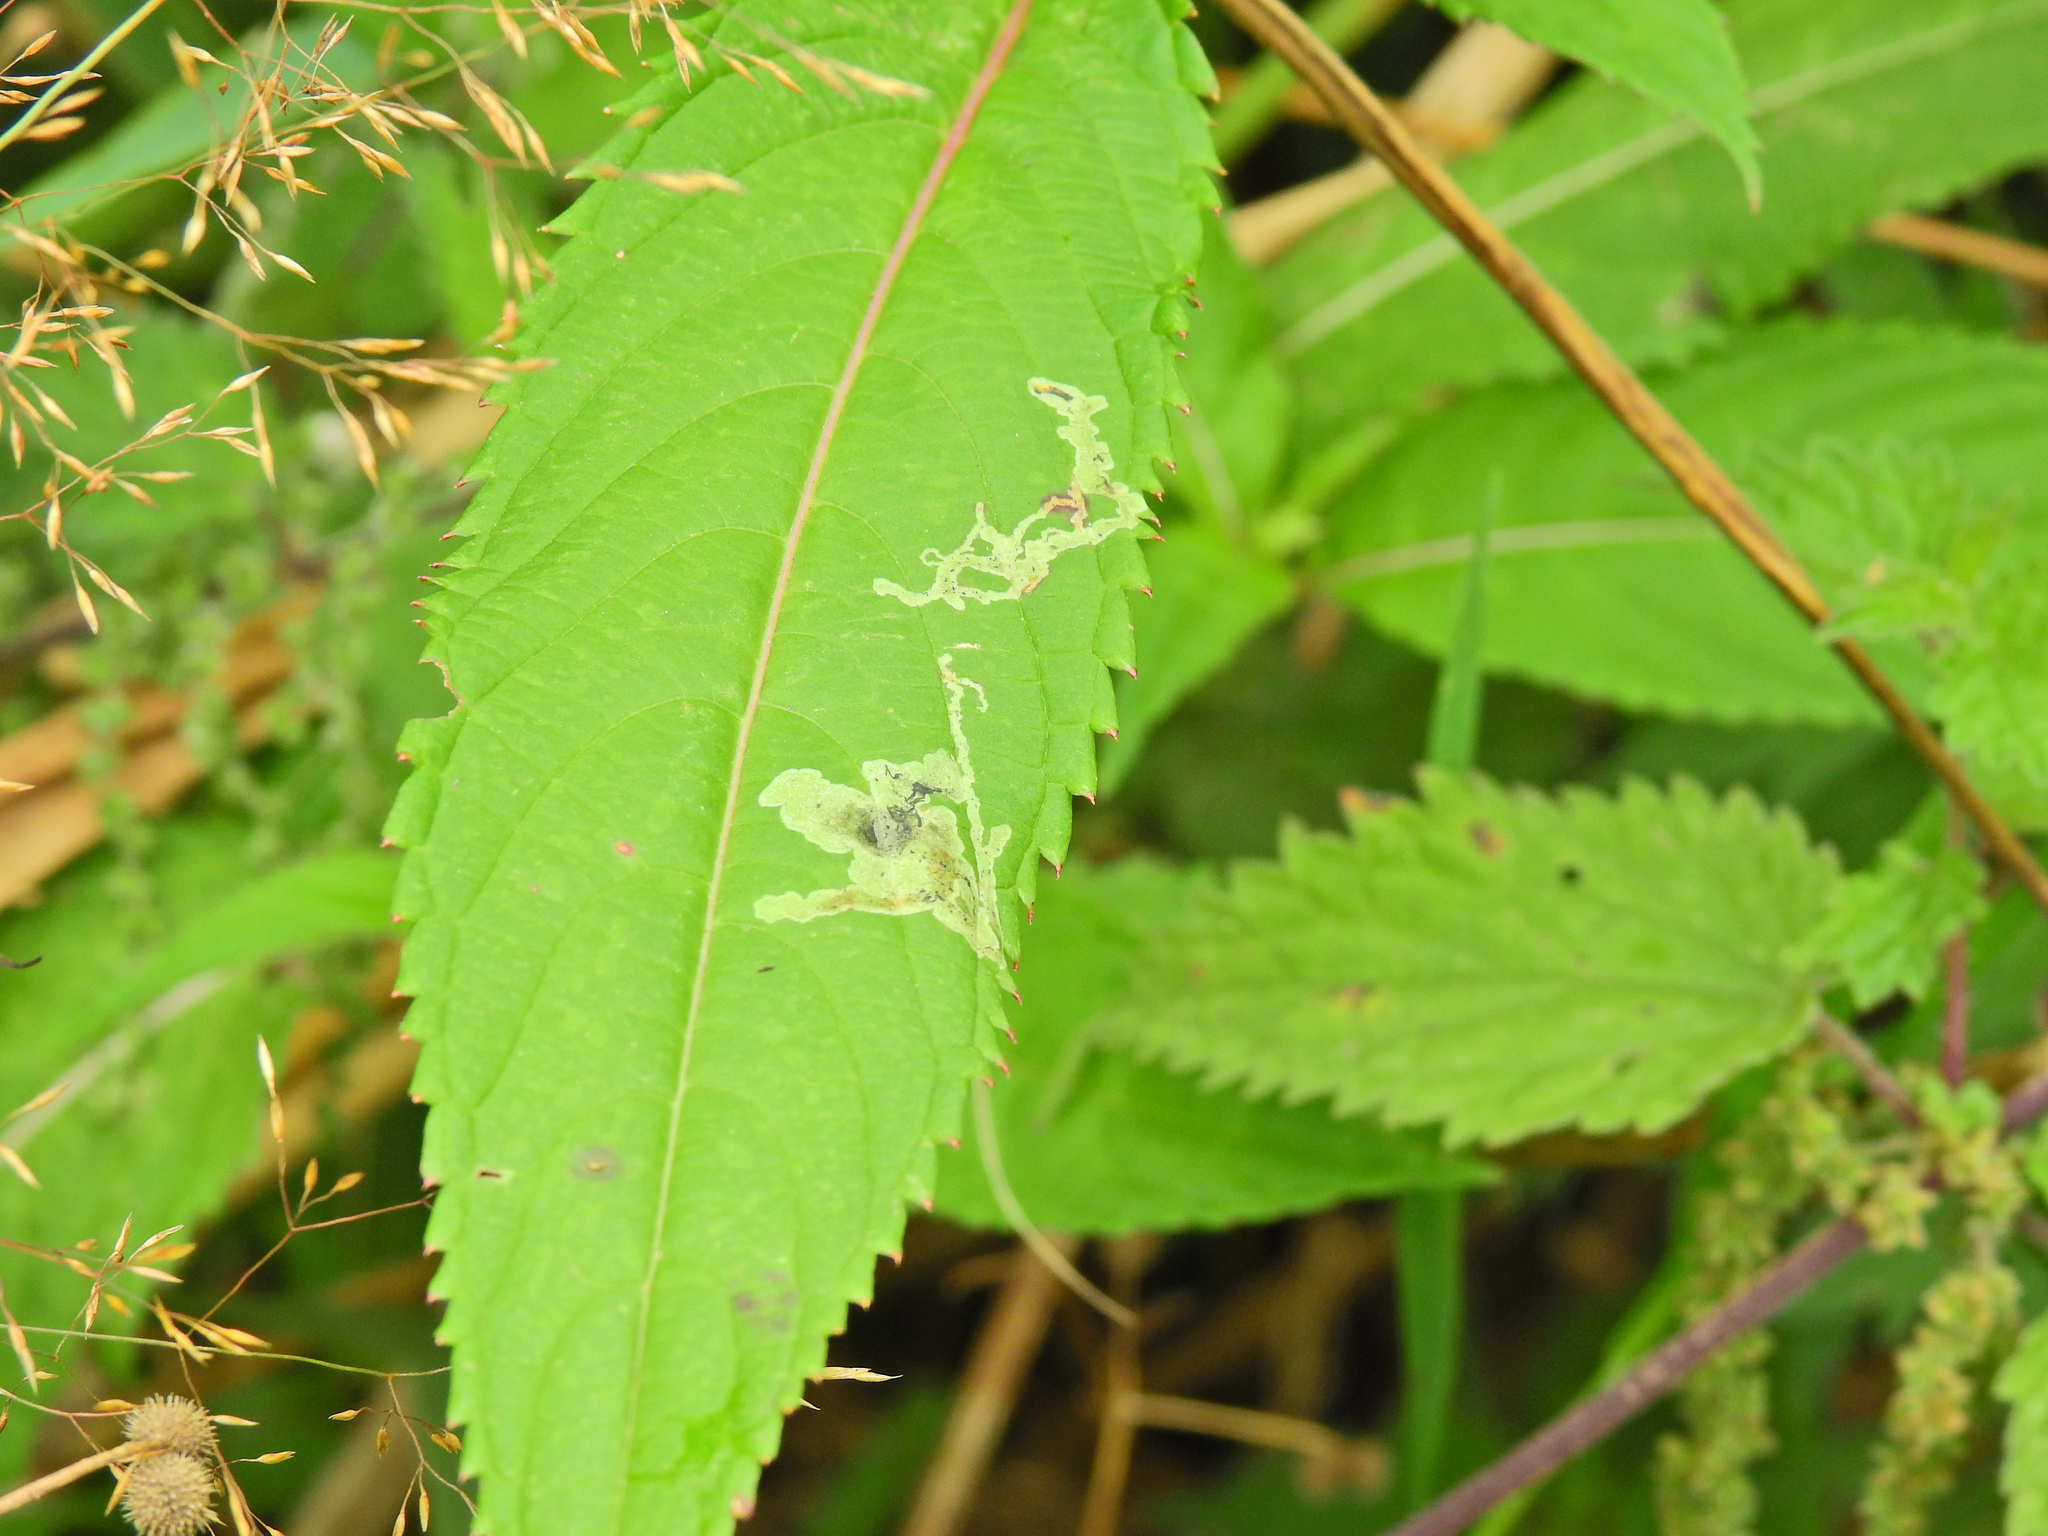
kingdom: Animalia
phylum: Arthropoda
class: Insecta
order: Diptera
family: Agromyzidae
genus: Phytoliriomyza
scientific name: Phytoliriomyza melampyga
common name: Jewelweed leaf-miner fly
